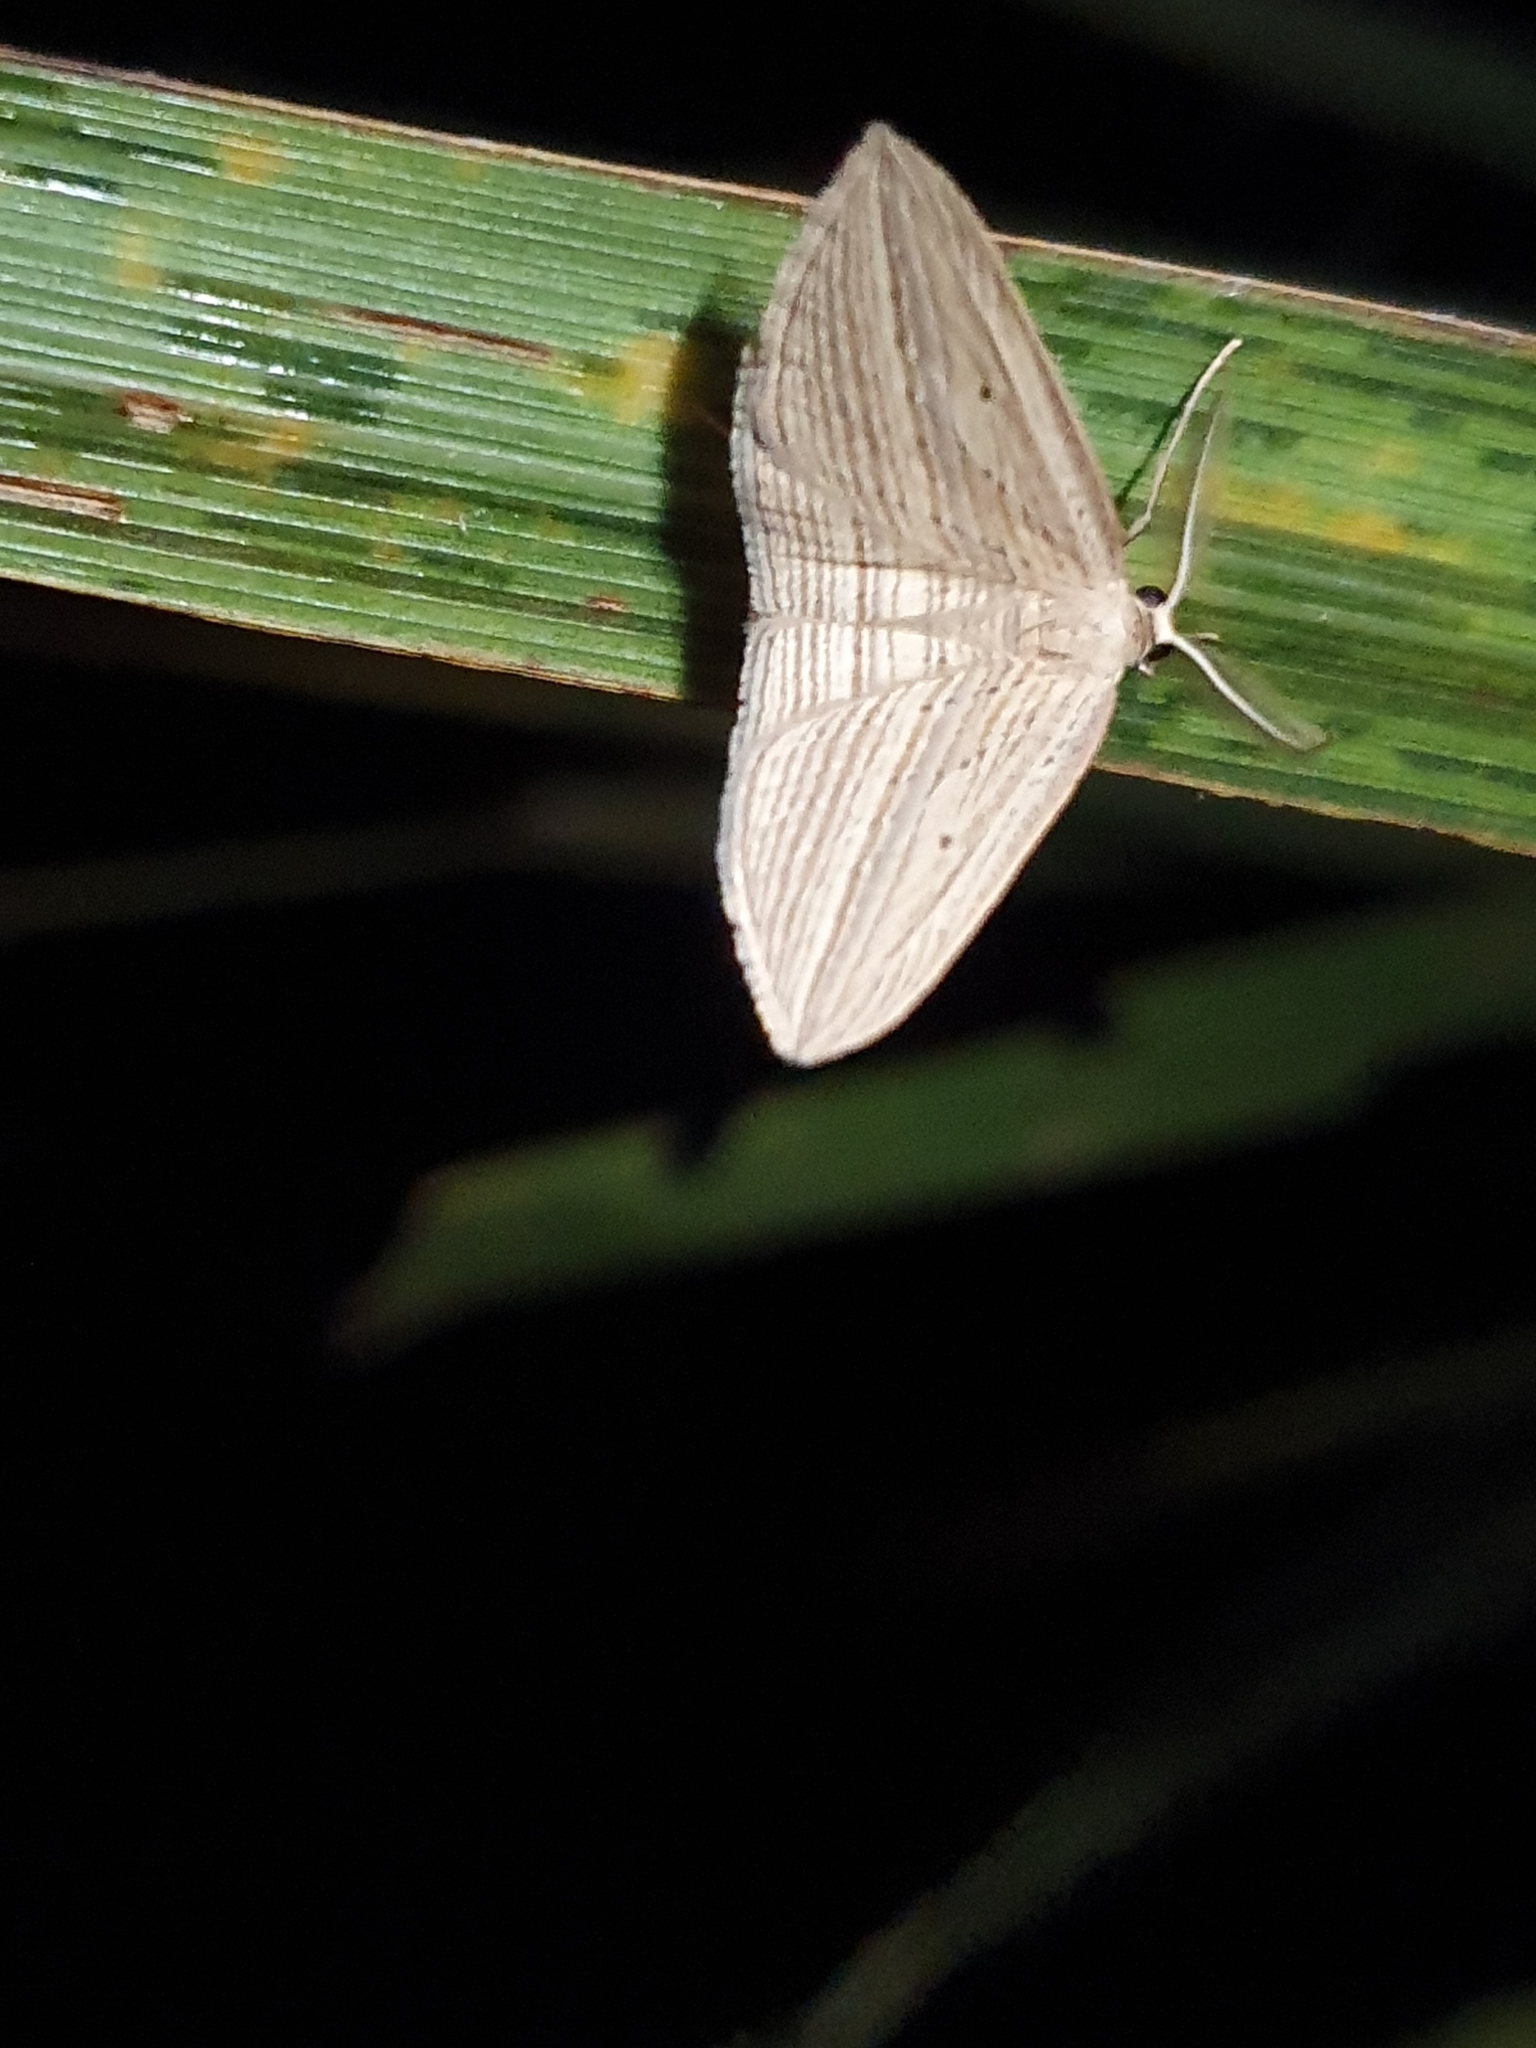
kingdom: Animalia
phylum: Arthropoda
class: Insecta
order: Lepidoptera
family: Geometridae
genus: Epiphryne
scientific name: Epiphryne verriculata
